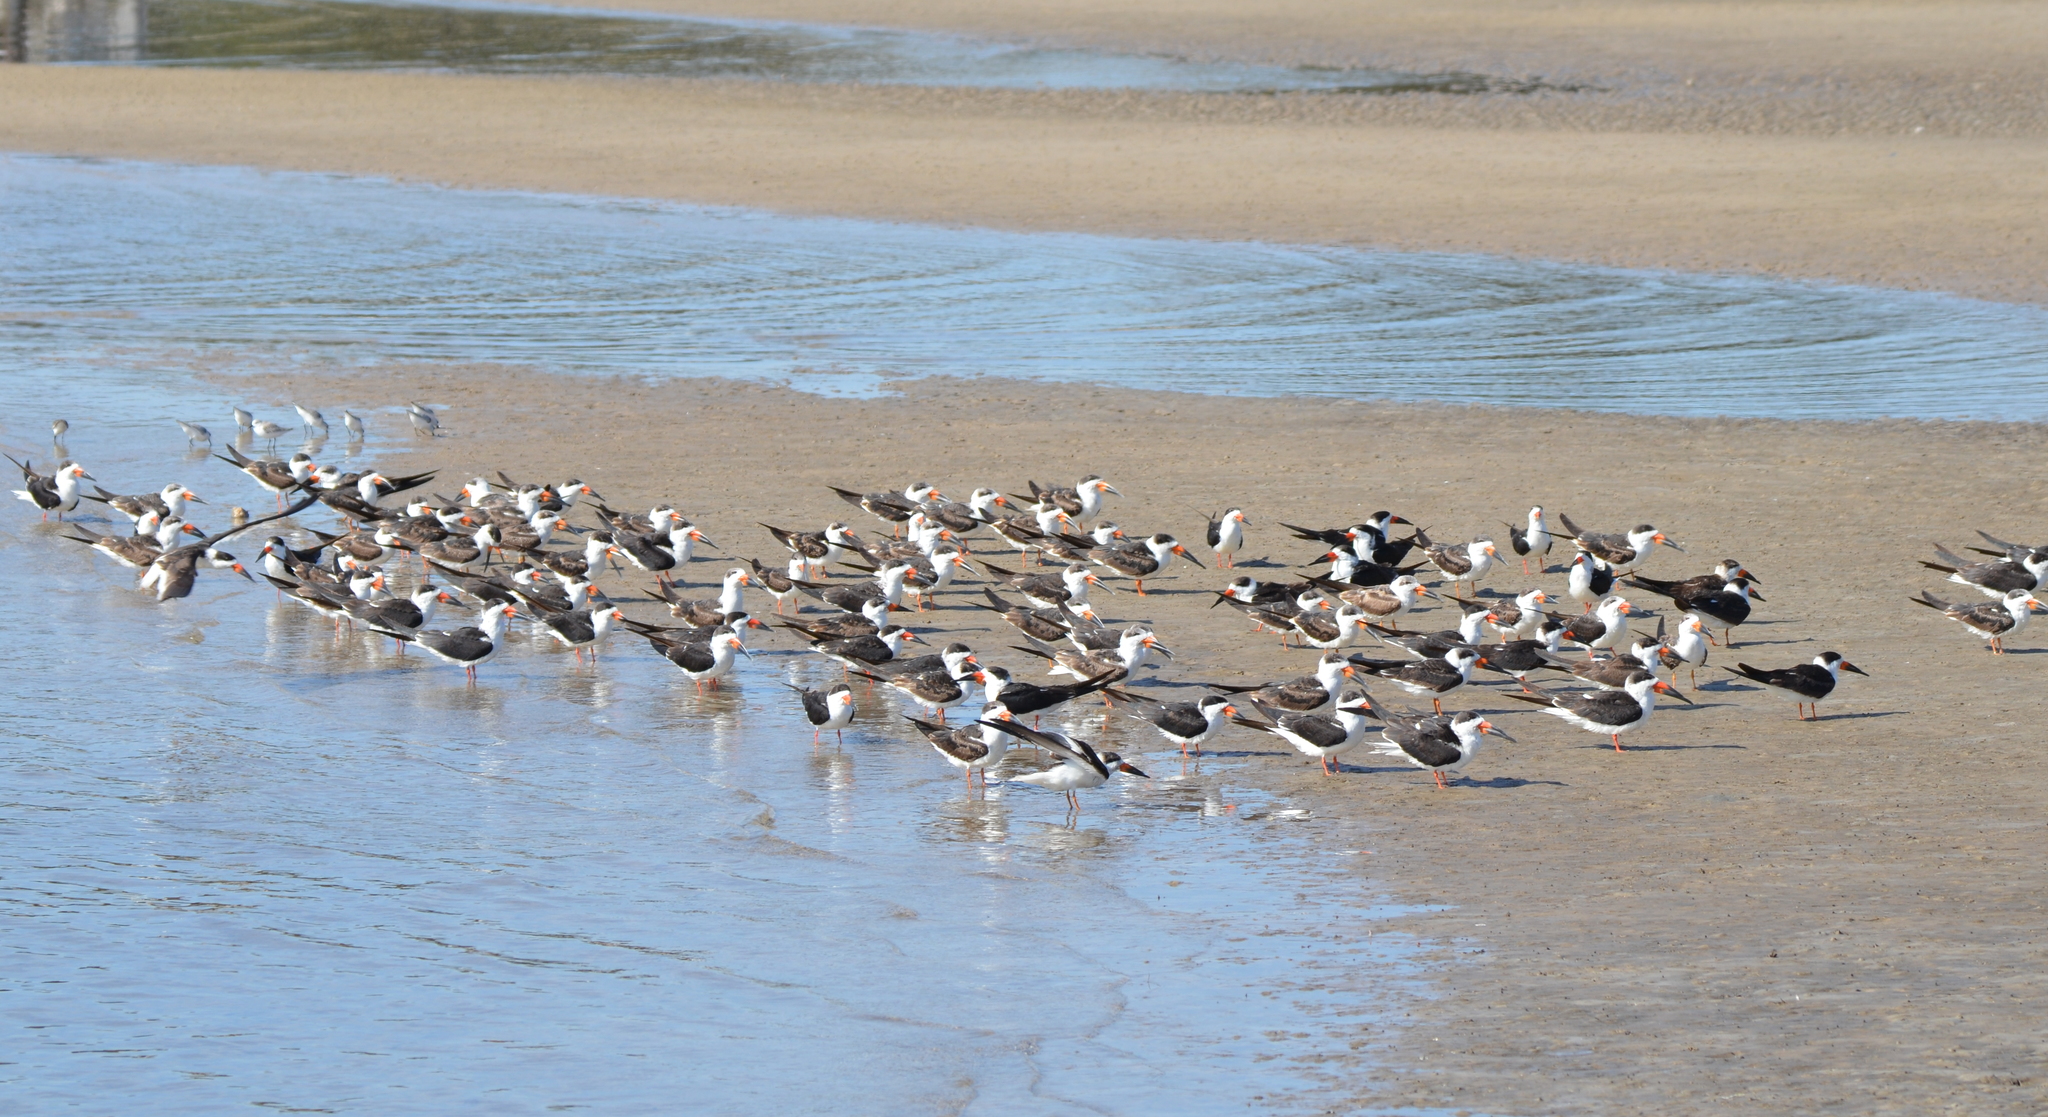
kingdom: Animalia
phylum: Chordata
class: Aves
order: Charadriiformes
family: Laridae
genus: Rynchops
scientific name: Rynchops niger
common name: Black skimmer
